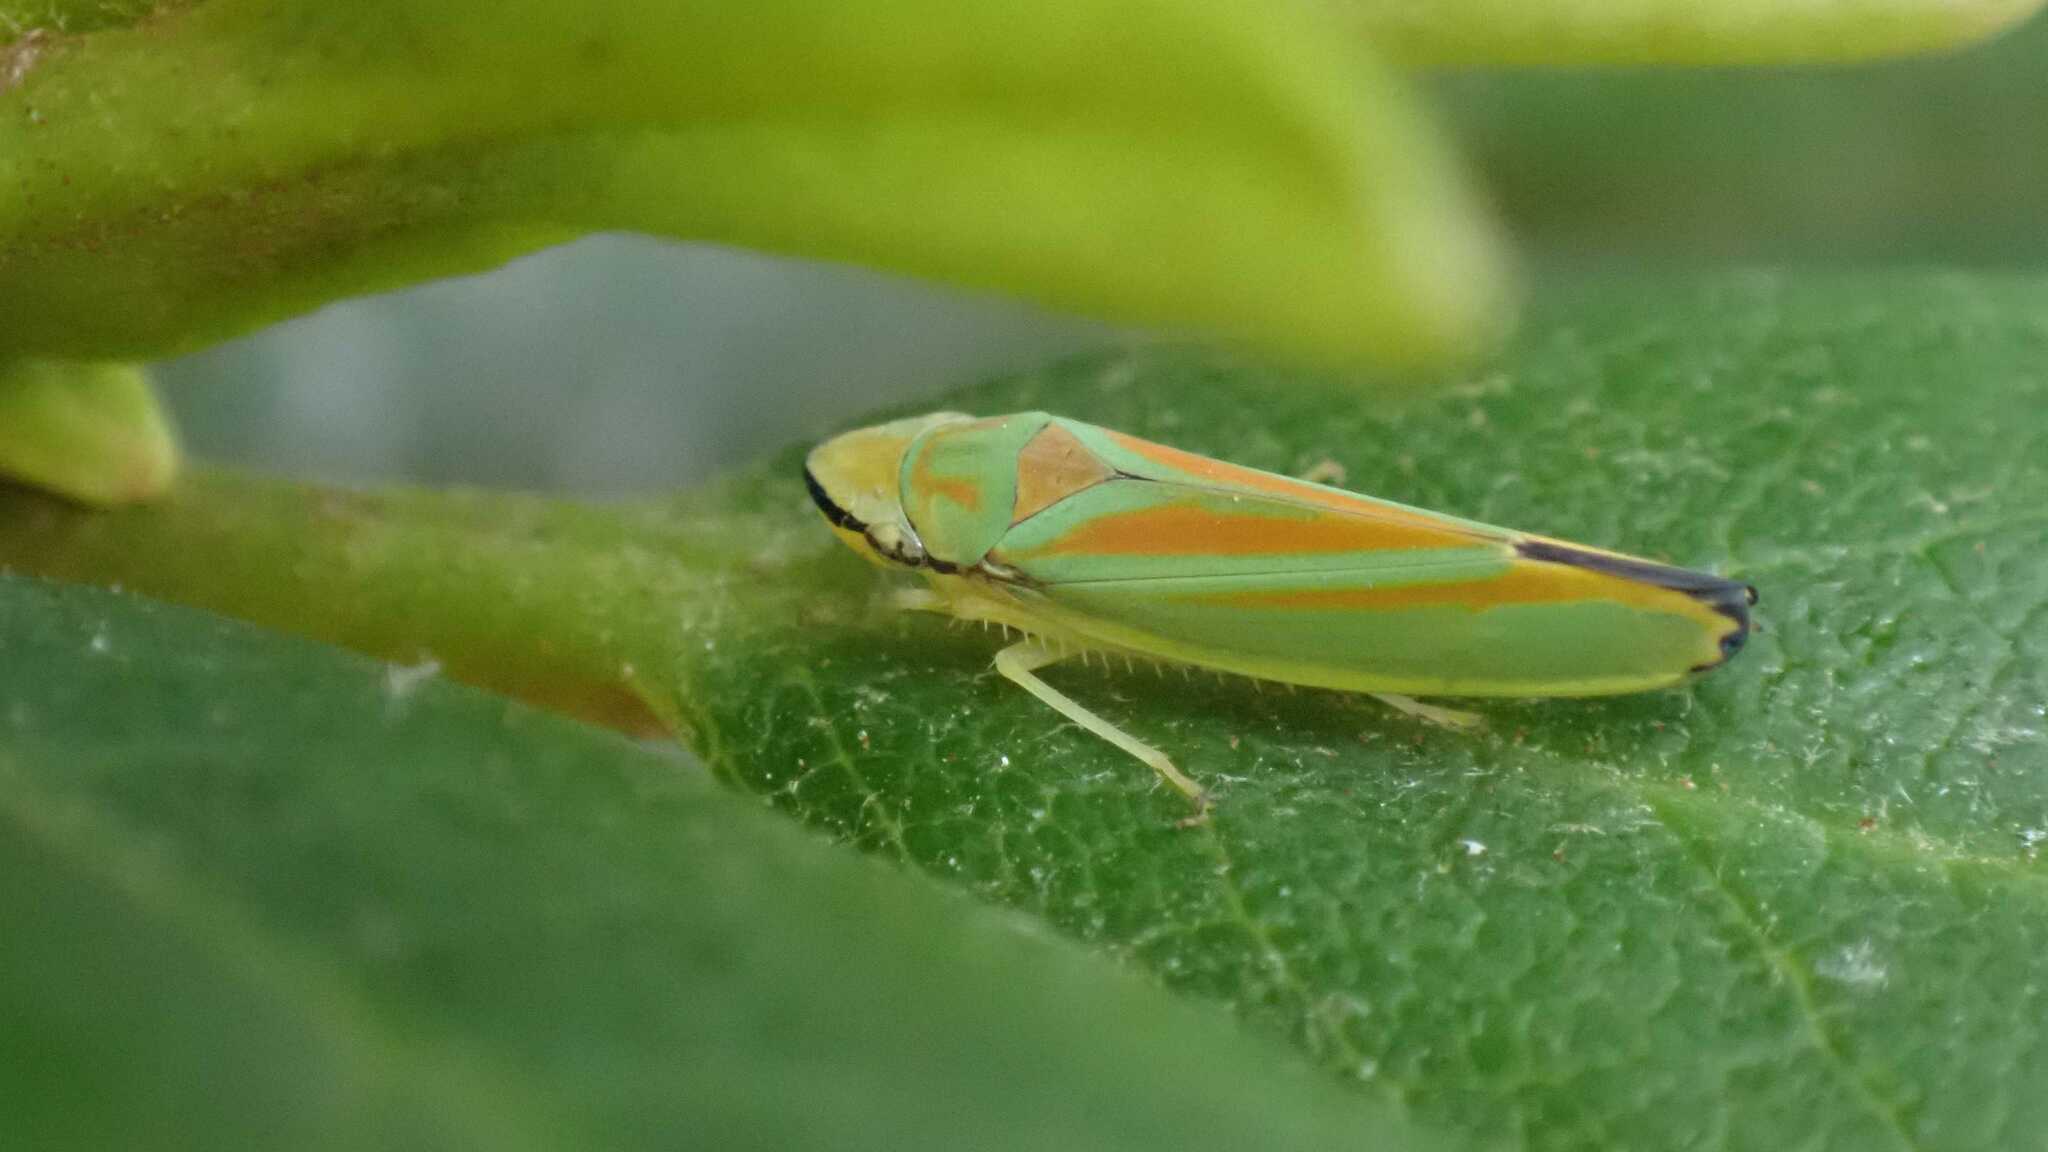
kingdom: Animalia
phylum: Arthropoda
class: Insecta
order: Hemiptera
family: Cicadellidae
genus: Graphocephala
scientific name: Graphocephala fennahi
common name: Rhododendron leafhopper
